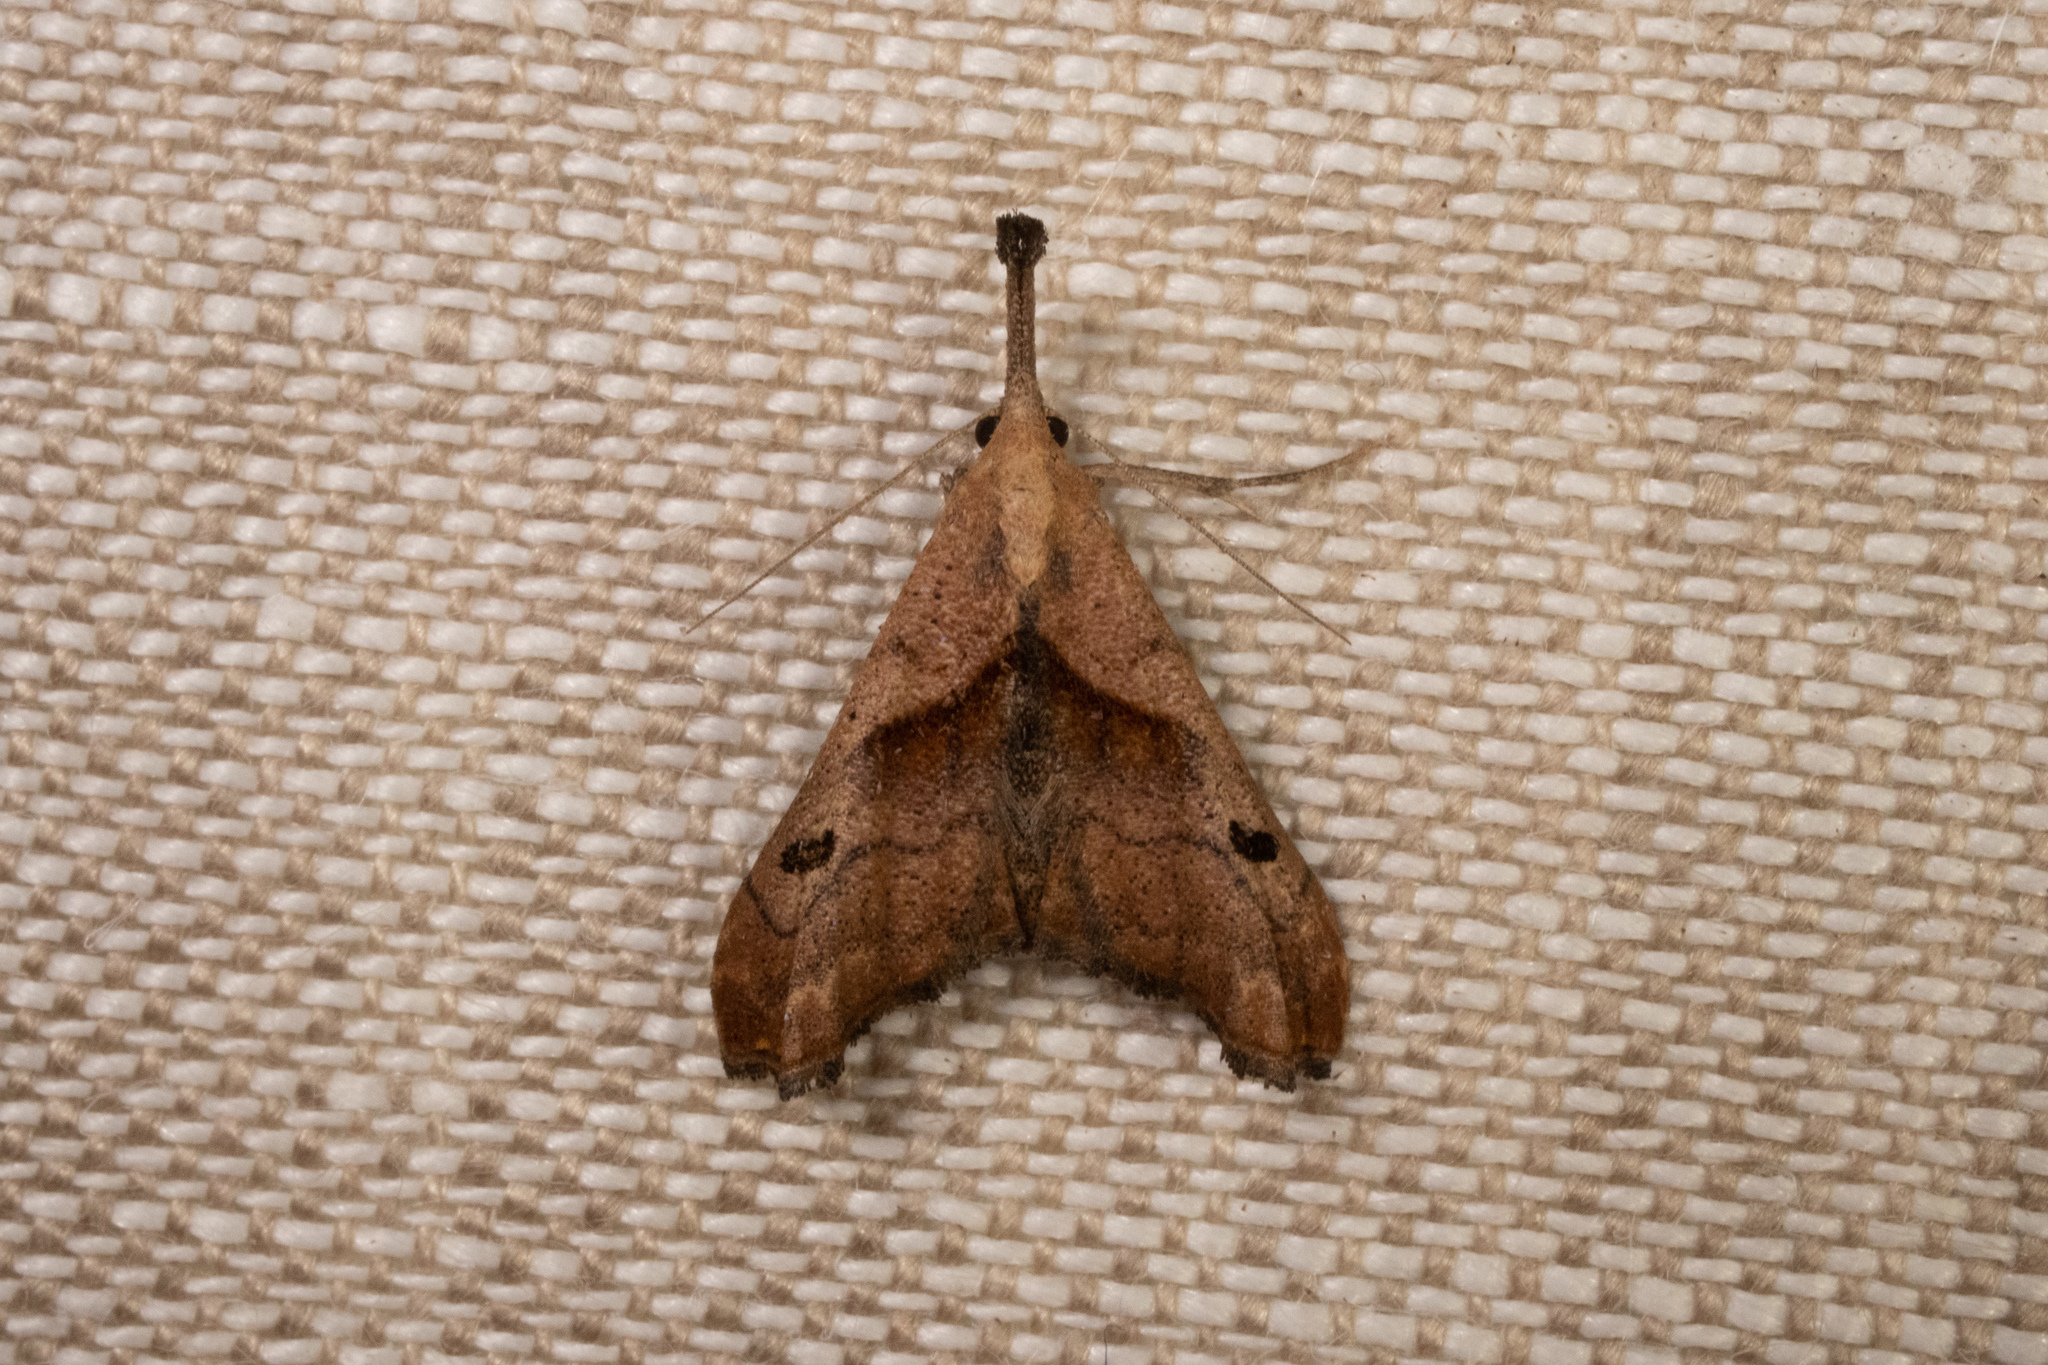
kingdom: Animalia
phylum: Arthropoda
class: Insecta
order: Lepidoptera
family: Erebidae
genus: Palthis
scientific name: Palthis angulalis
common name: Dark-spotted palthis moth
